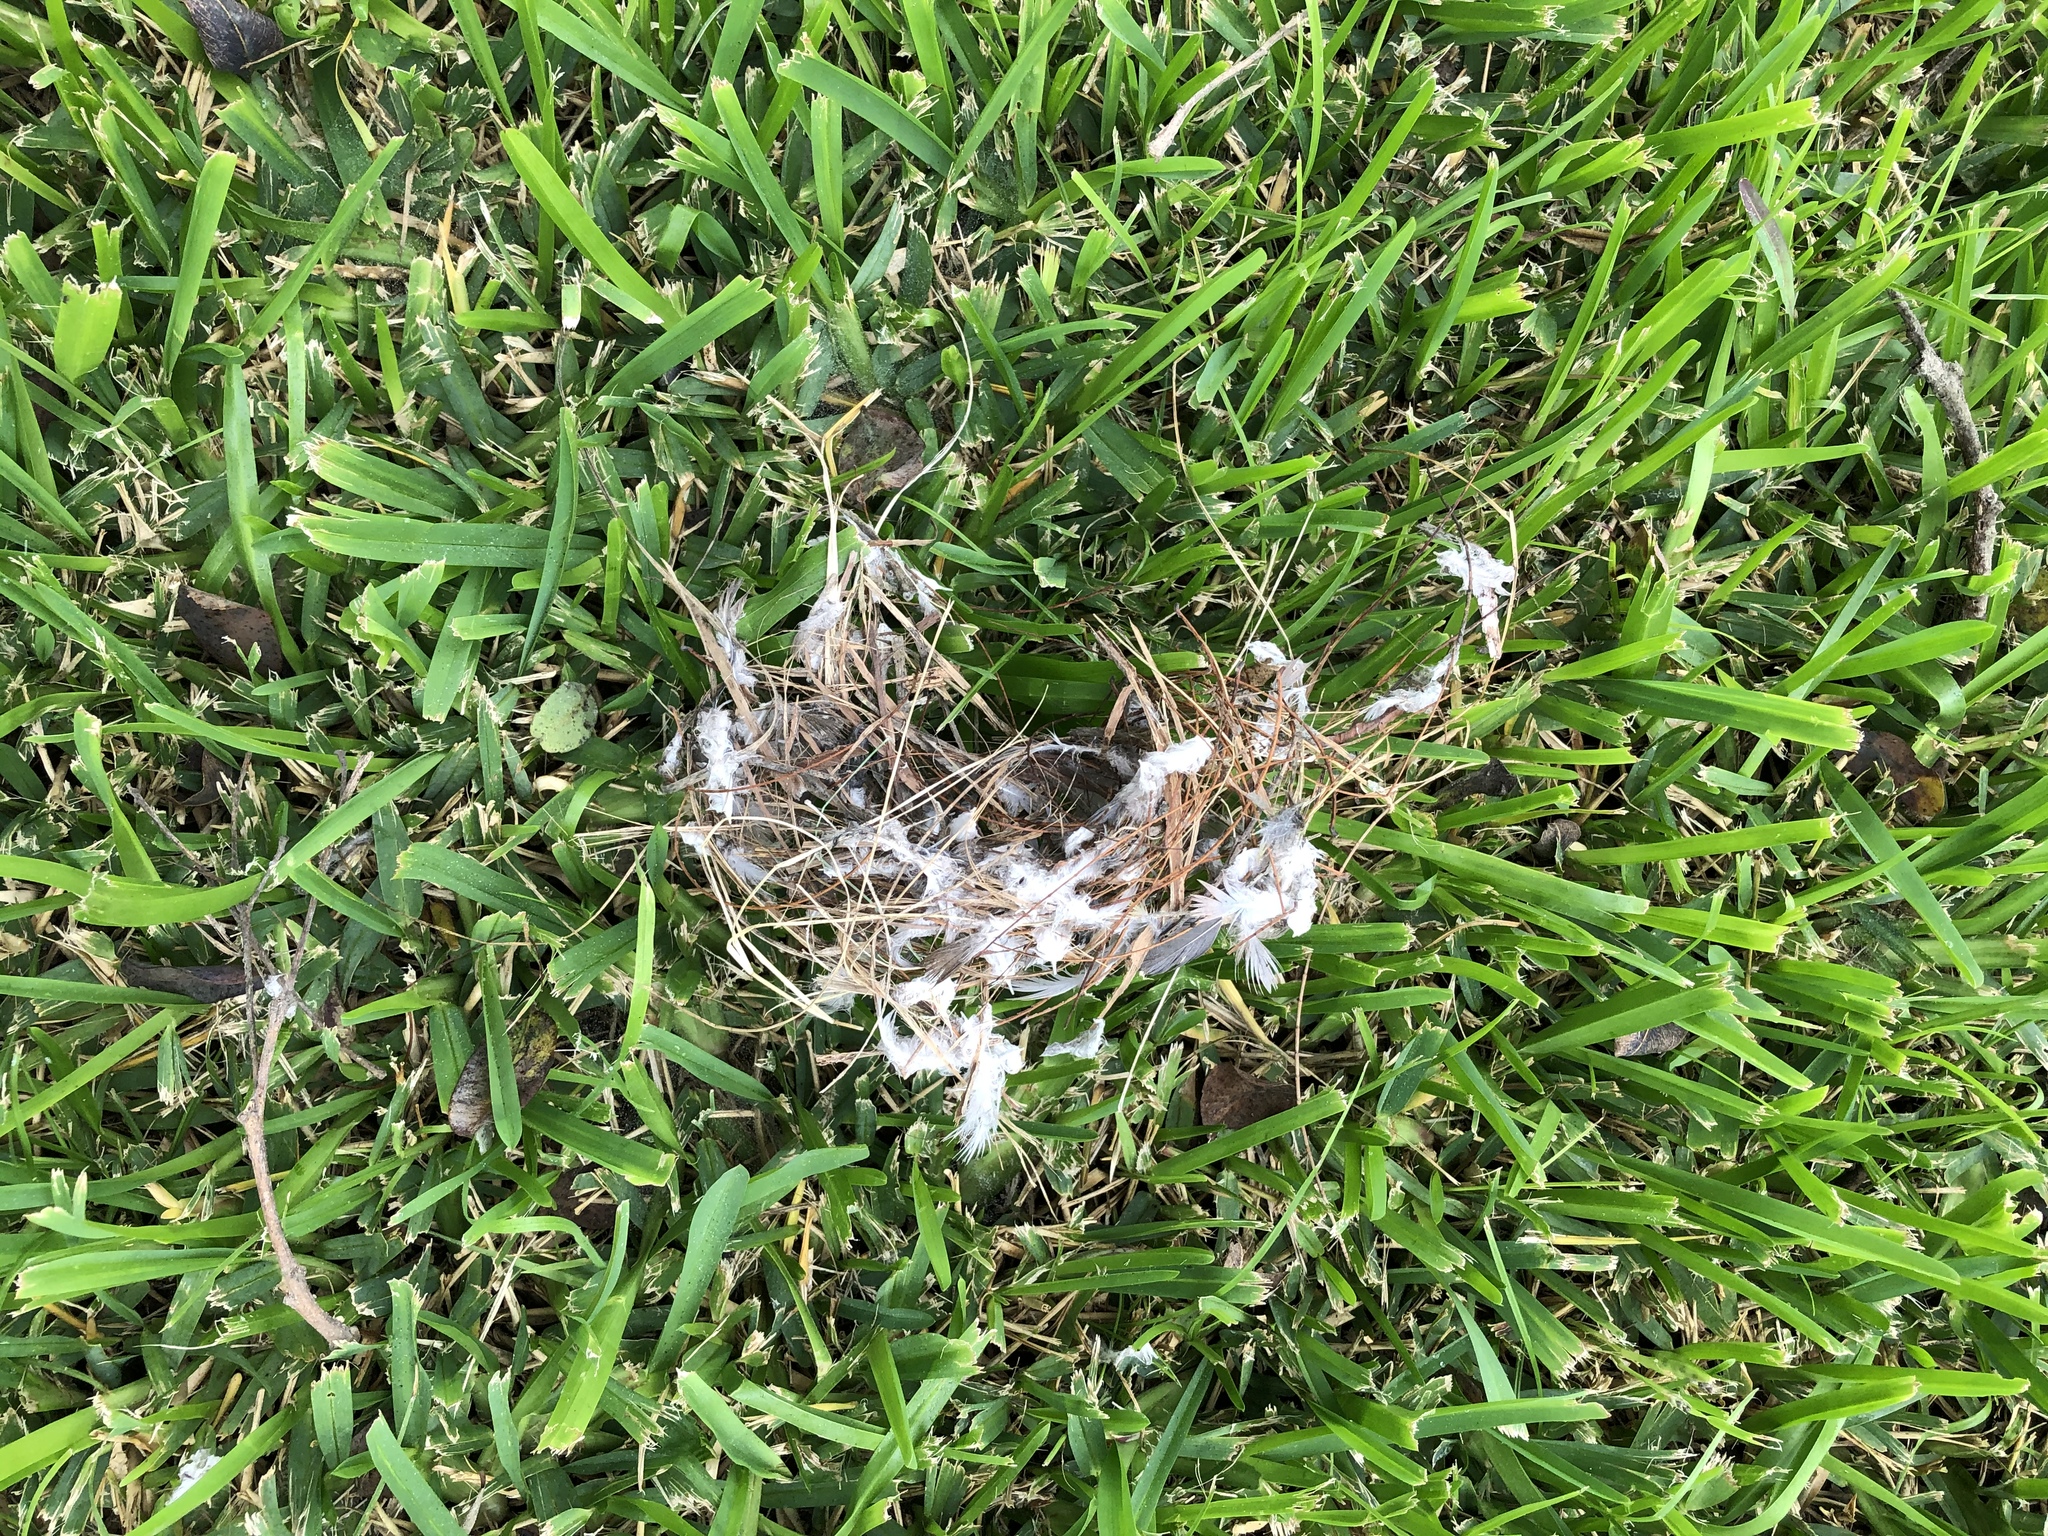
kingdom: Animalia
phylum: Chordata
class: Aves
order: Columbiformes
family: Columbidae
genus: Columbina
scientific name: Columbina cruziana
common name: Croaking ground dove
